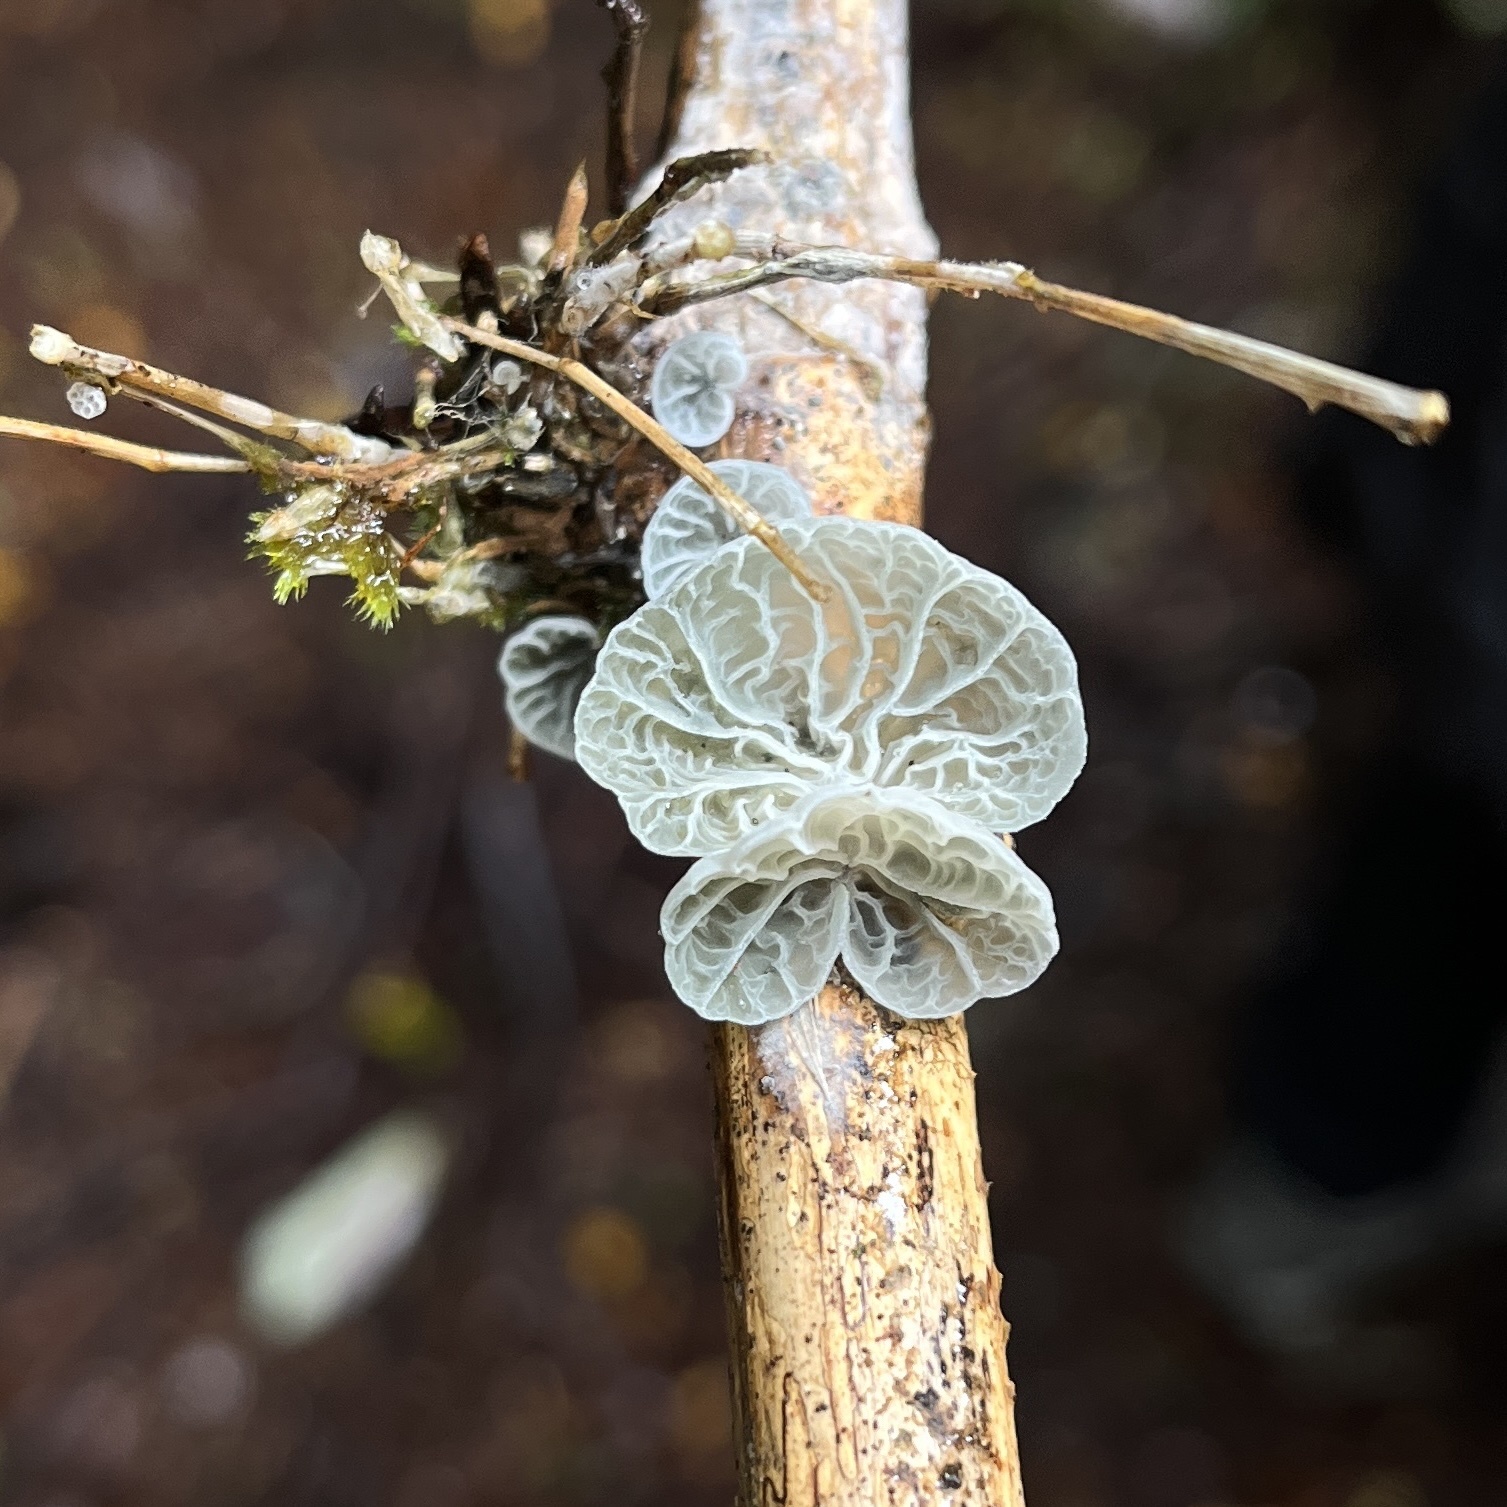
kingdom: Fungi
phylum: Basidiomycota
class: Agaricomycetes
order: Agaricales
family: Marasmiaceae
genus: Tetrapyrgos
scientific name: Tetrapyrgos alba
